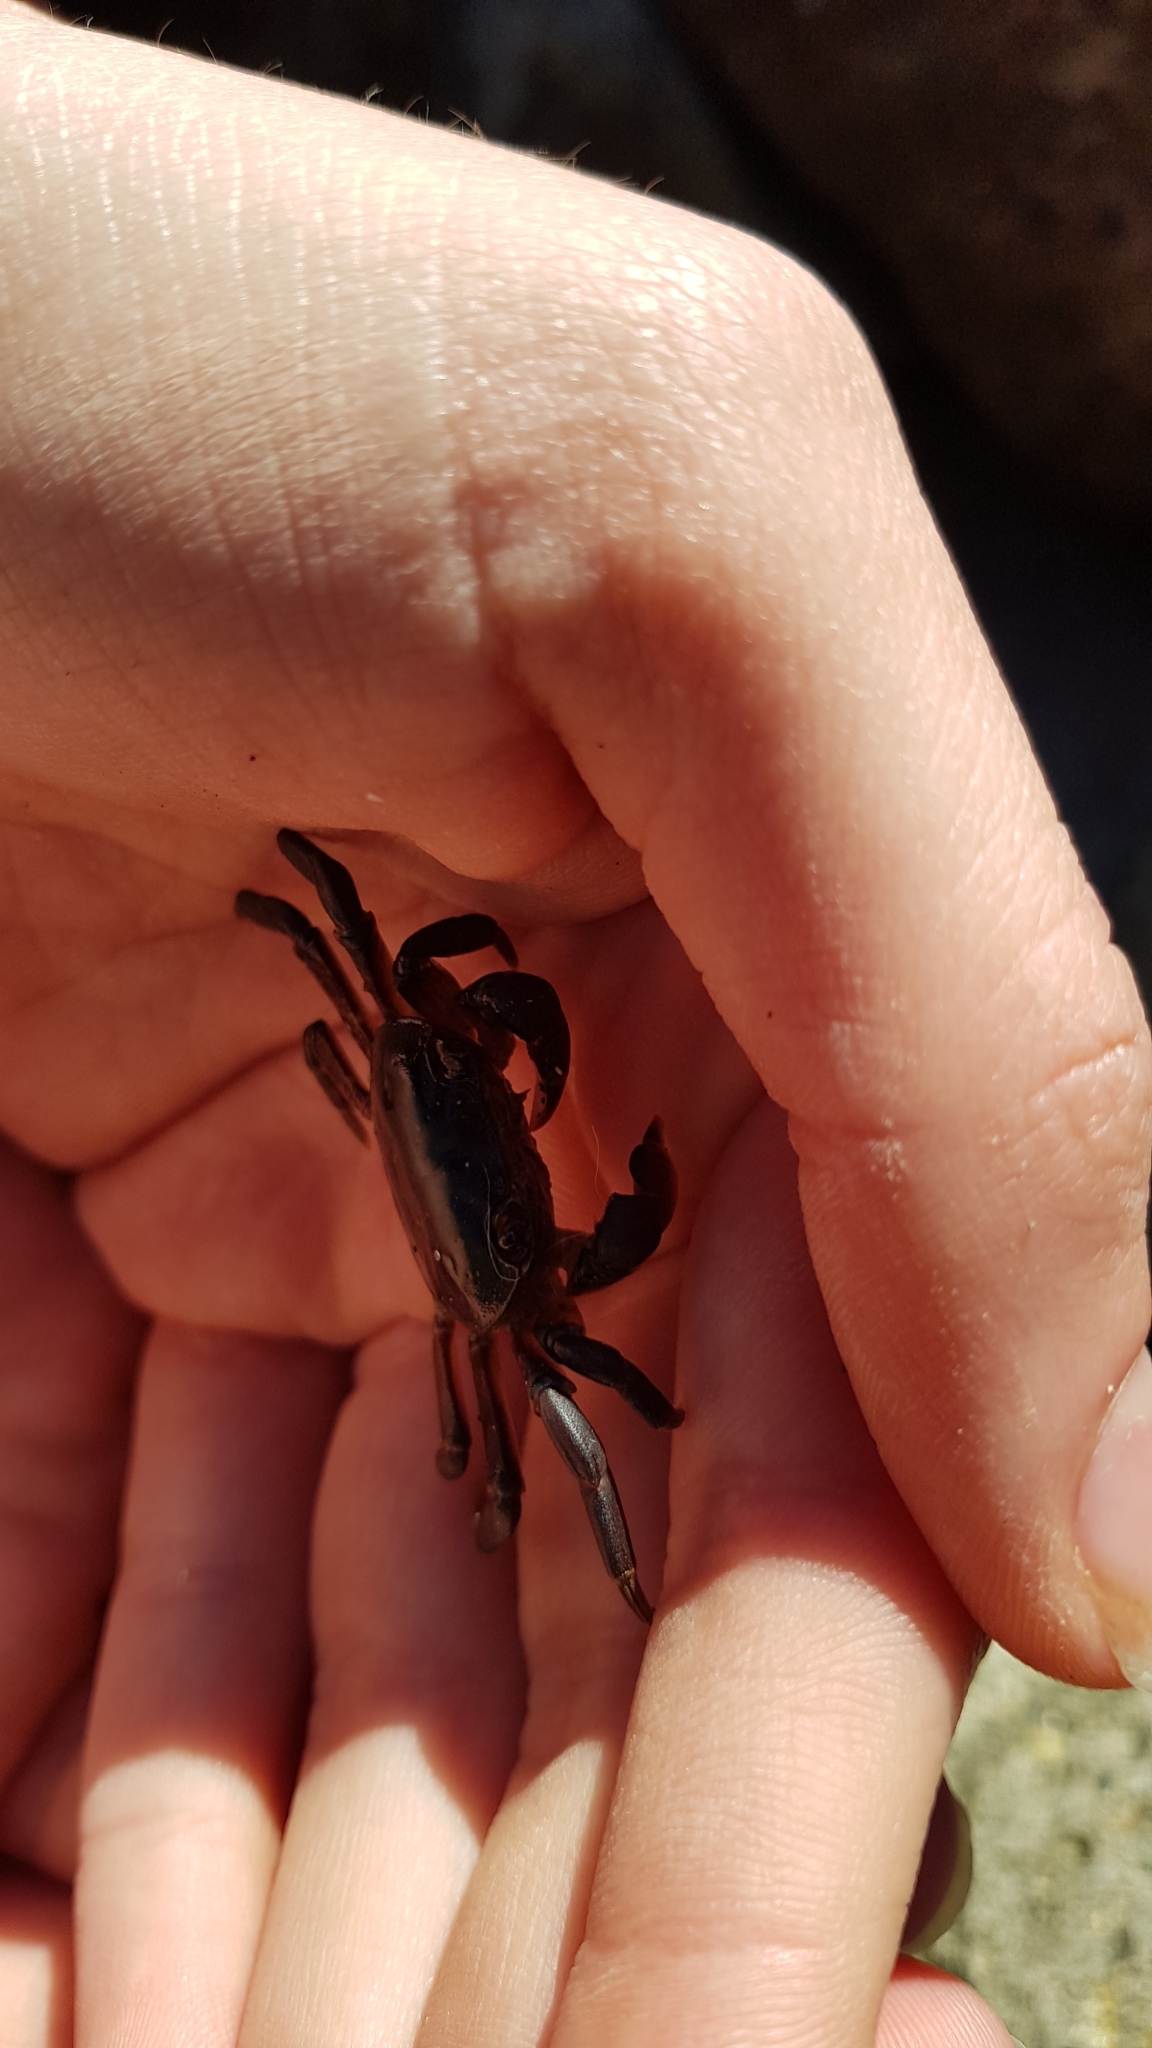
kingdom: Animalia
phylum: Arthropoda
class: Malacostraca
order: Decapoda
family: Varunidae
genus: Cyclograpsus
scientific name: Cyclograpsus lavauxi
